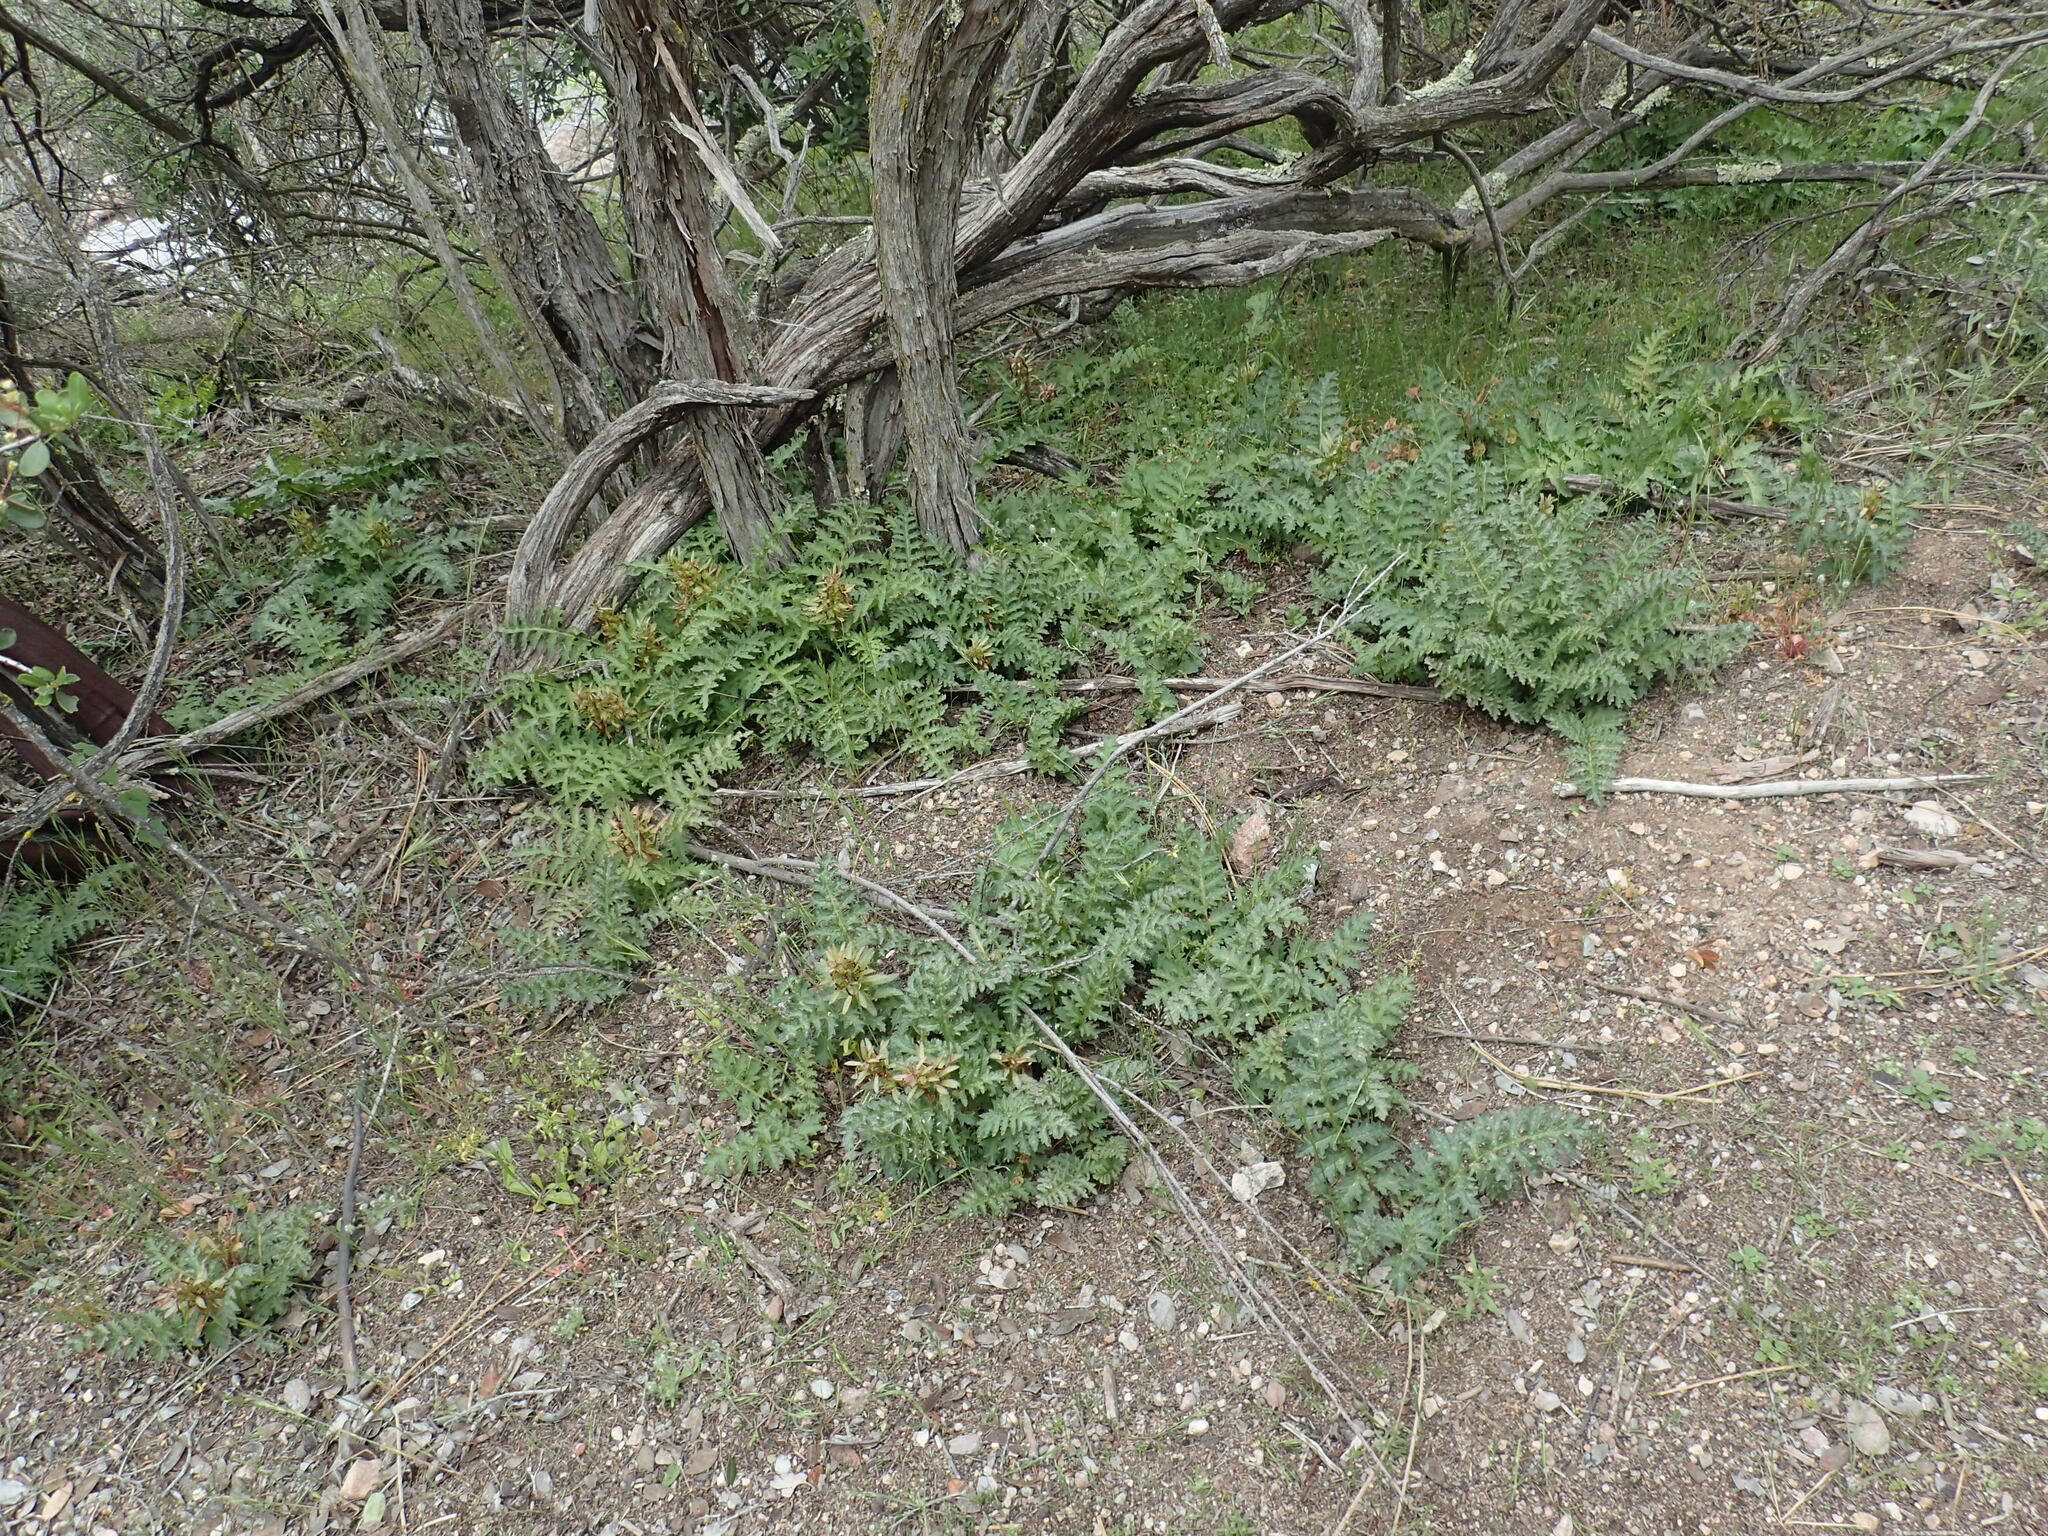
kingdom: Plantae
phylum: Tracheophyta
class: Magnoliopsida
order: Lamiales
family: Orobanchaceae
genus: Pedicularis
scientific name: Pedicularis densiflora
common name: Indian warrior
